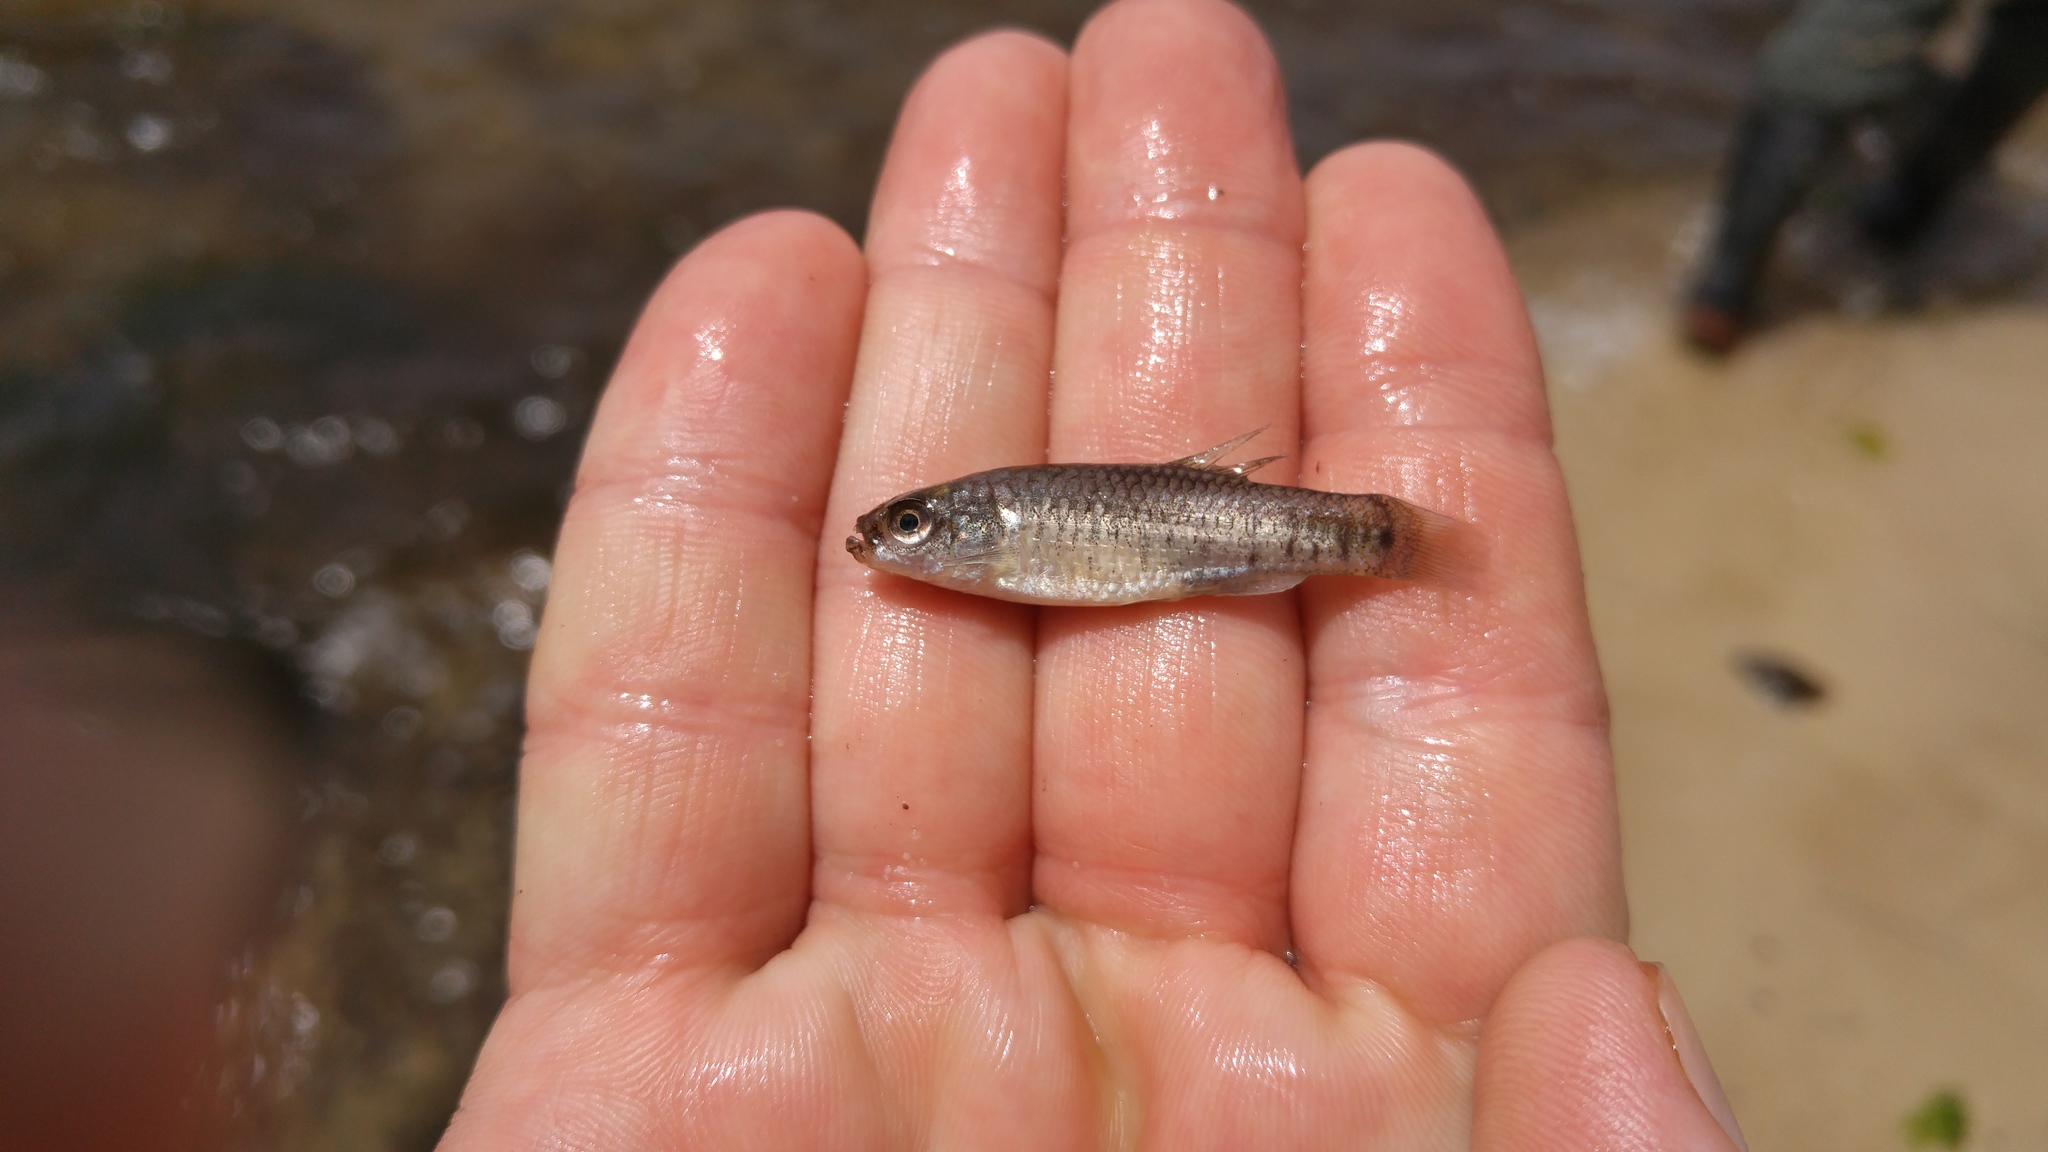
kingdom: Animalia
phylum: Chordata
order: Cyprinodontiformes
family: Cyprinodontidae
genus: Aphanius
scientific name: Aphanius fasciatus
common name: Mediterranean banded killifish
